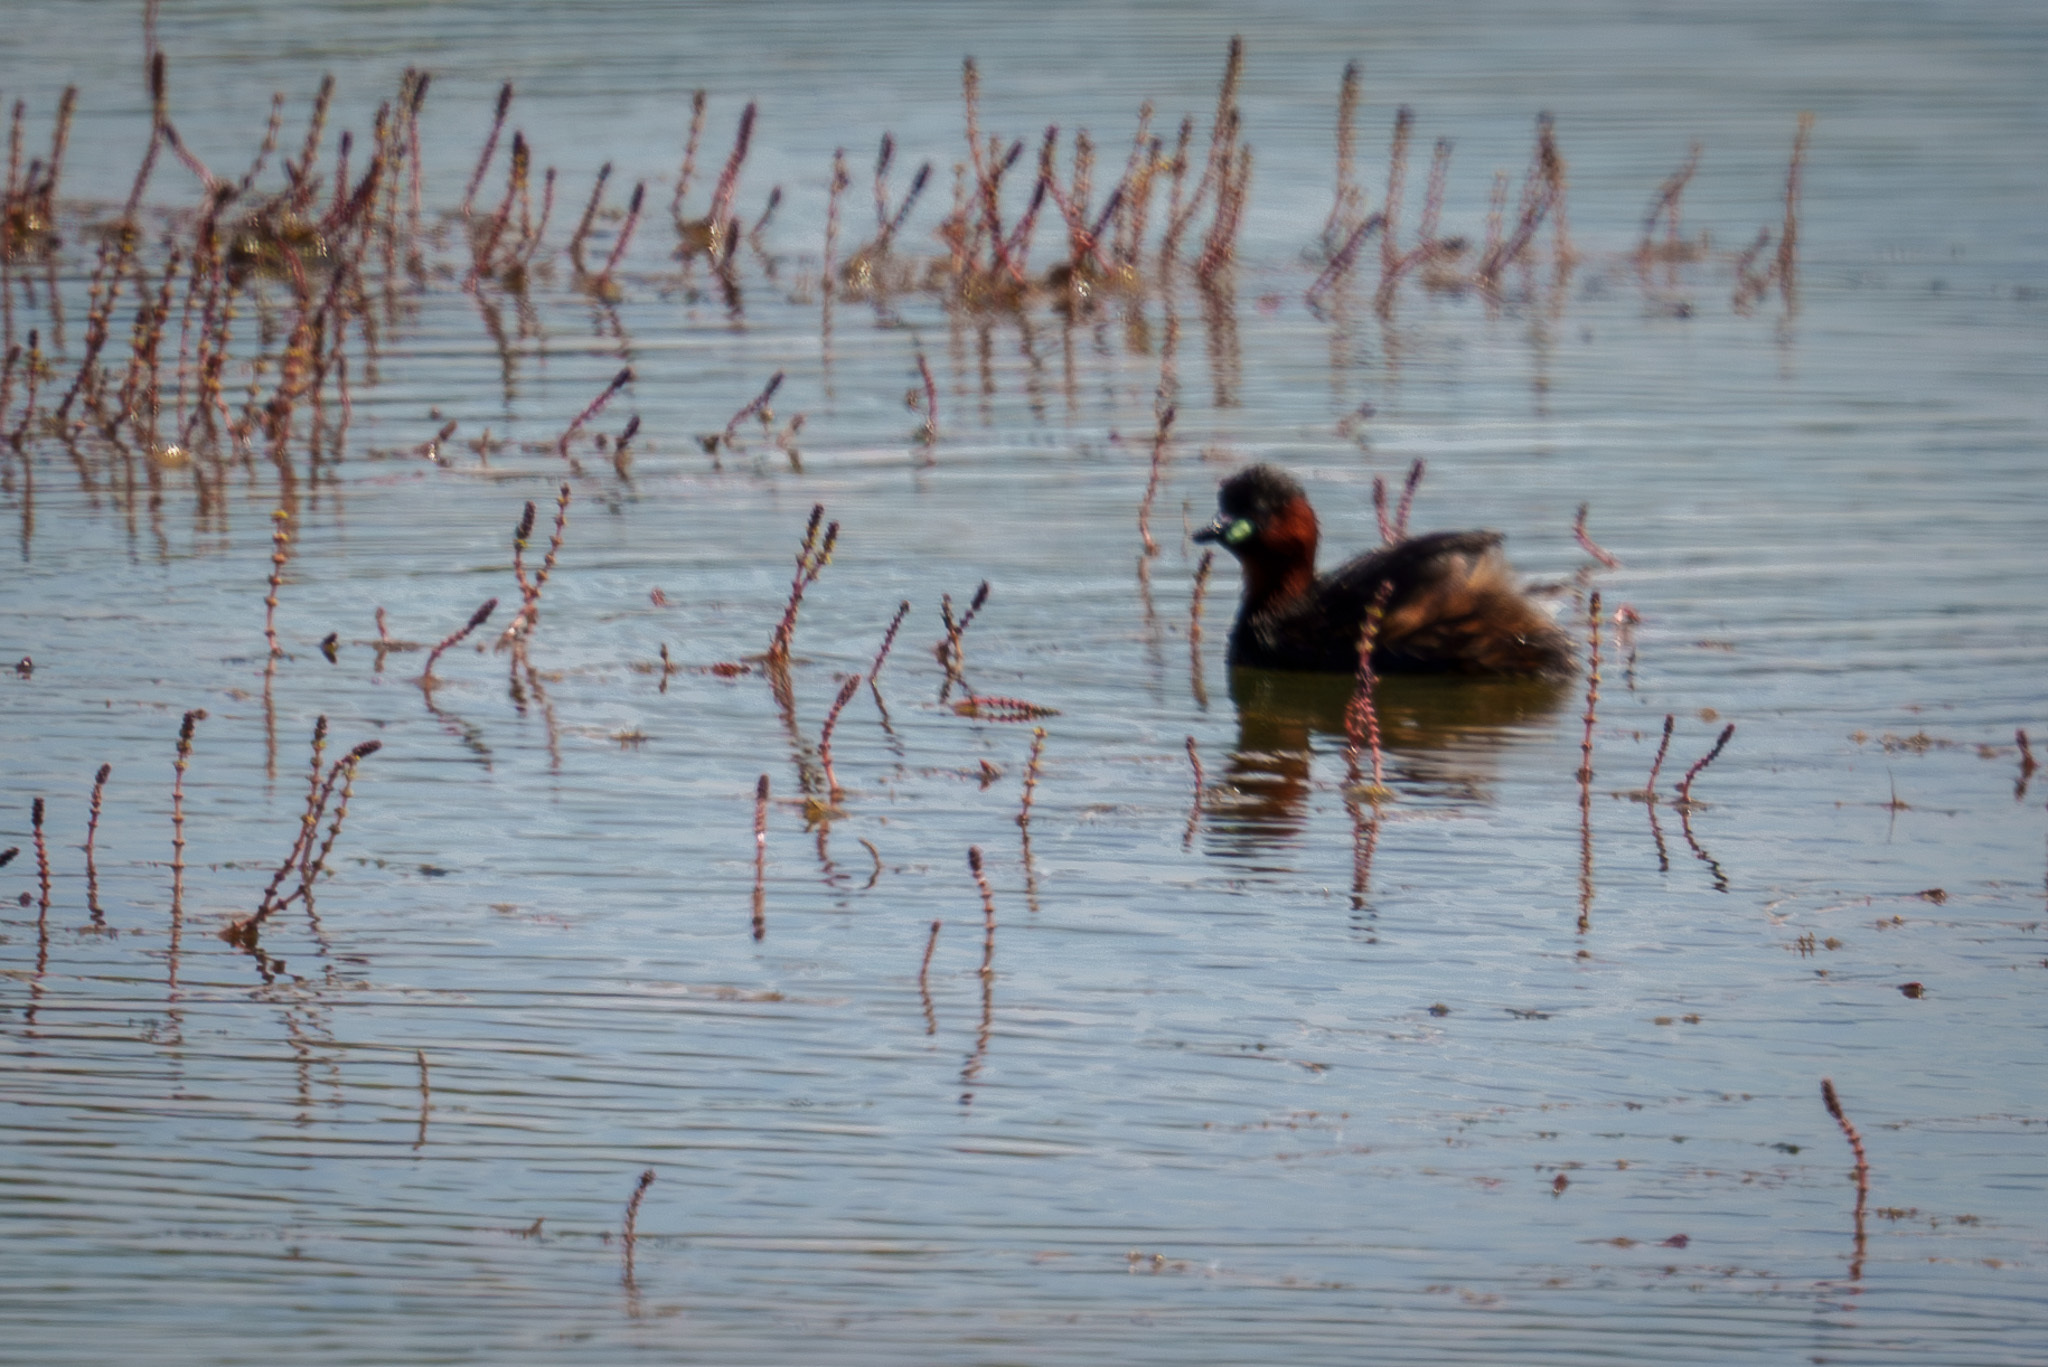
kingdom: Animalia
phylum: Chordata
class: Aves
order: Podicipediformes
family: Podicipedidae
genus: Tachybaptus
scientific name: Tachybaptus ruficollis
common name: Little grebe
